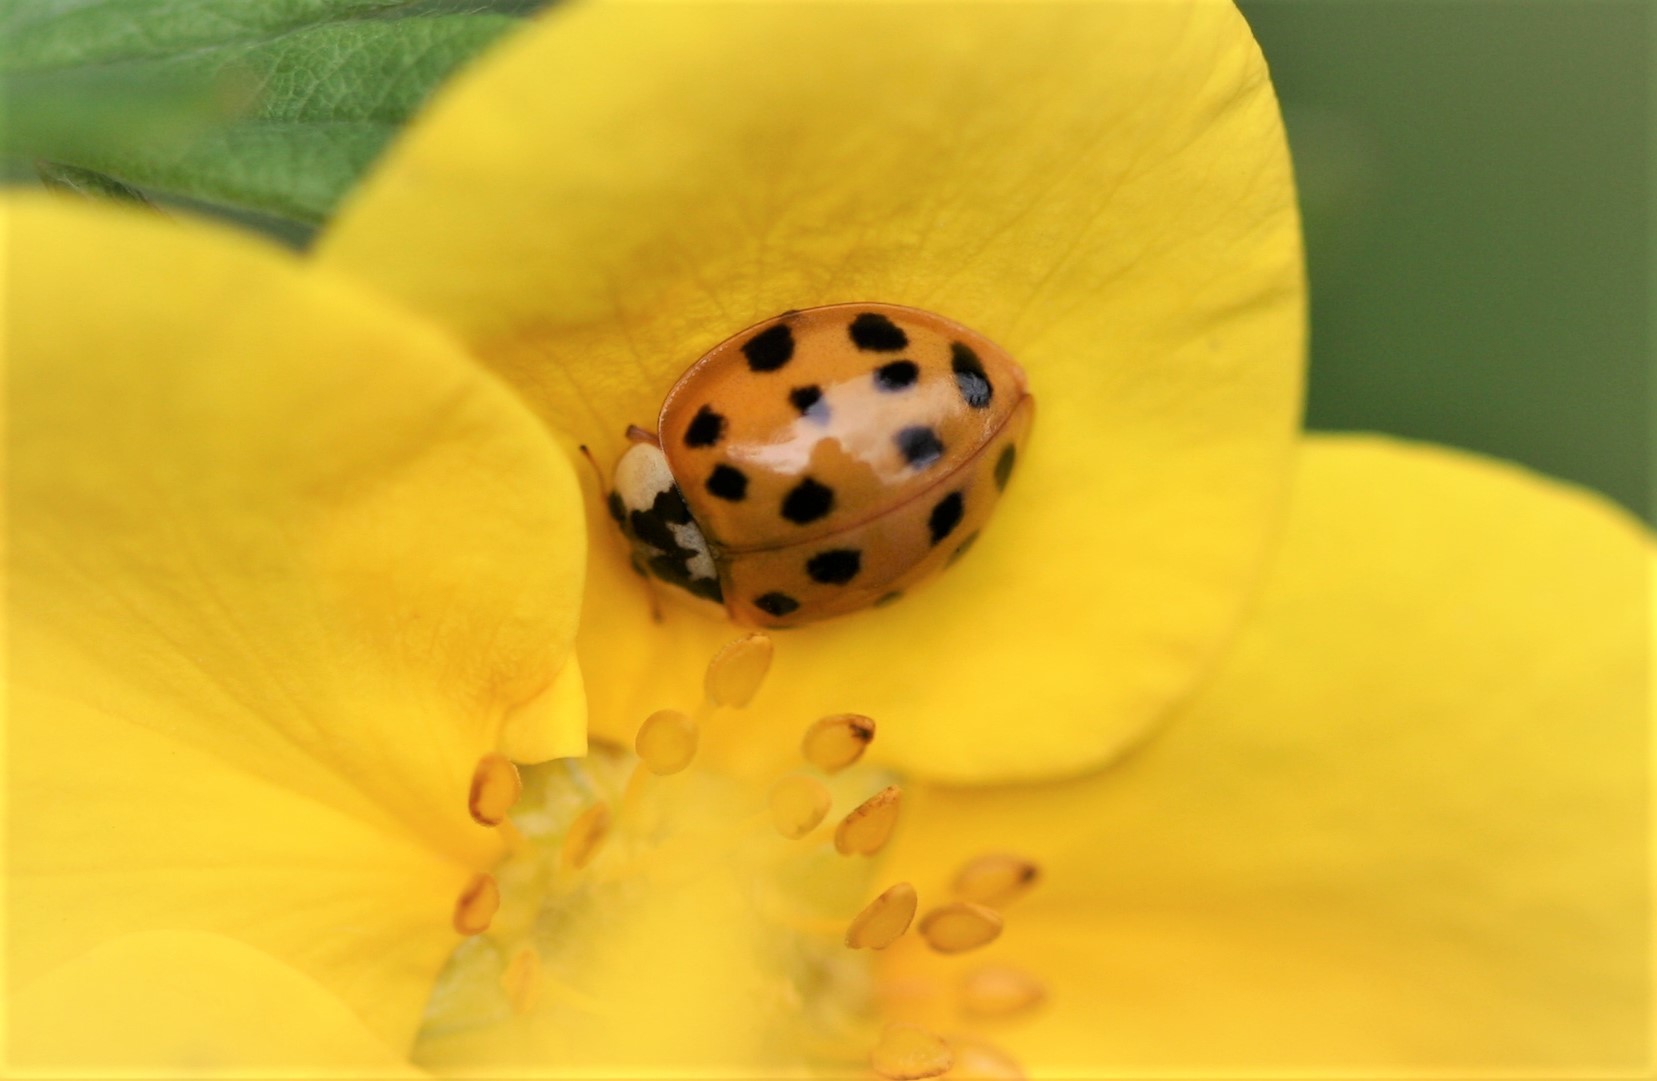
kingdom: Animalia
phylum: Arthropoda
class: Insecta
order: Coleoptera
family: Coccinellidae
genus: Harmonia
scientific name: Harmonia axyridis
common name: Harlequin ladybird
